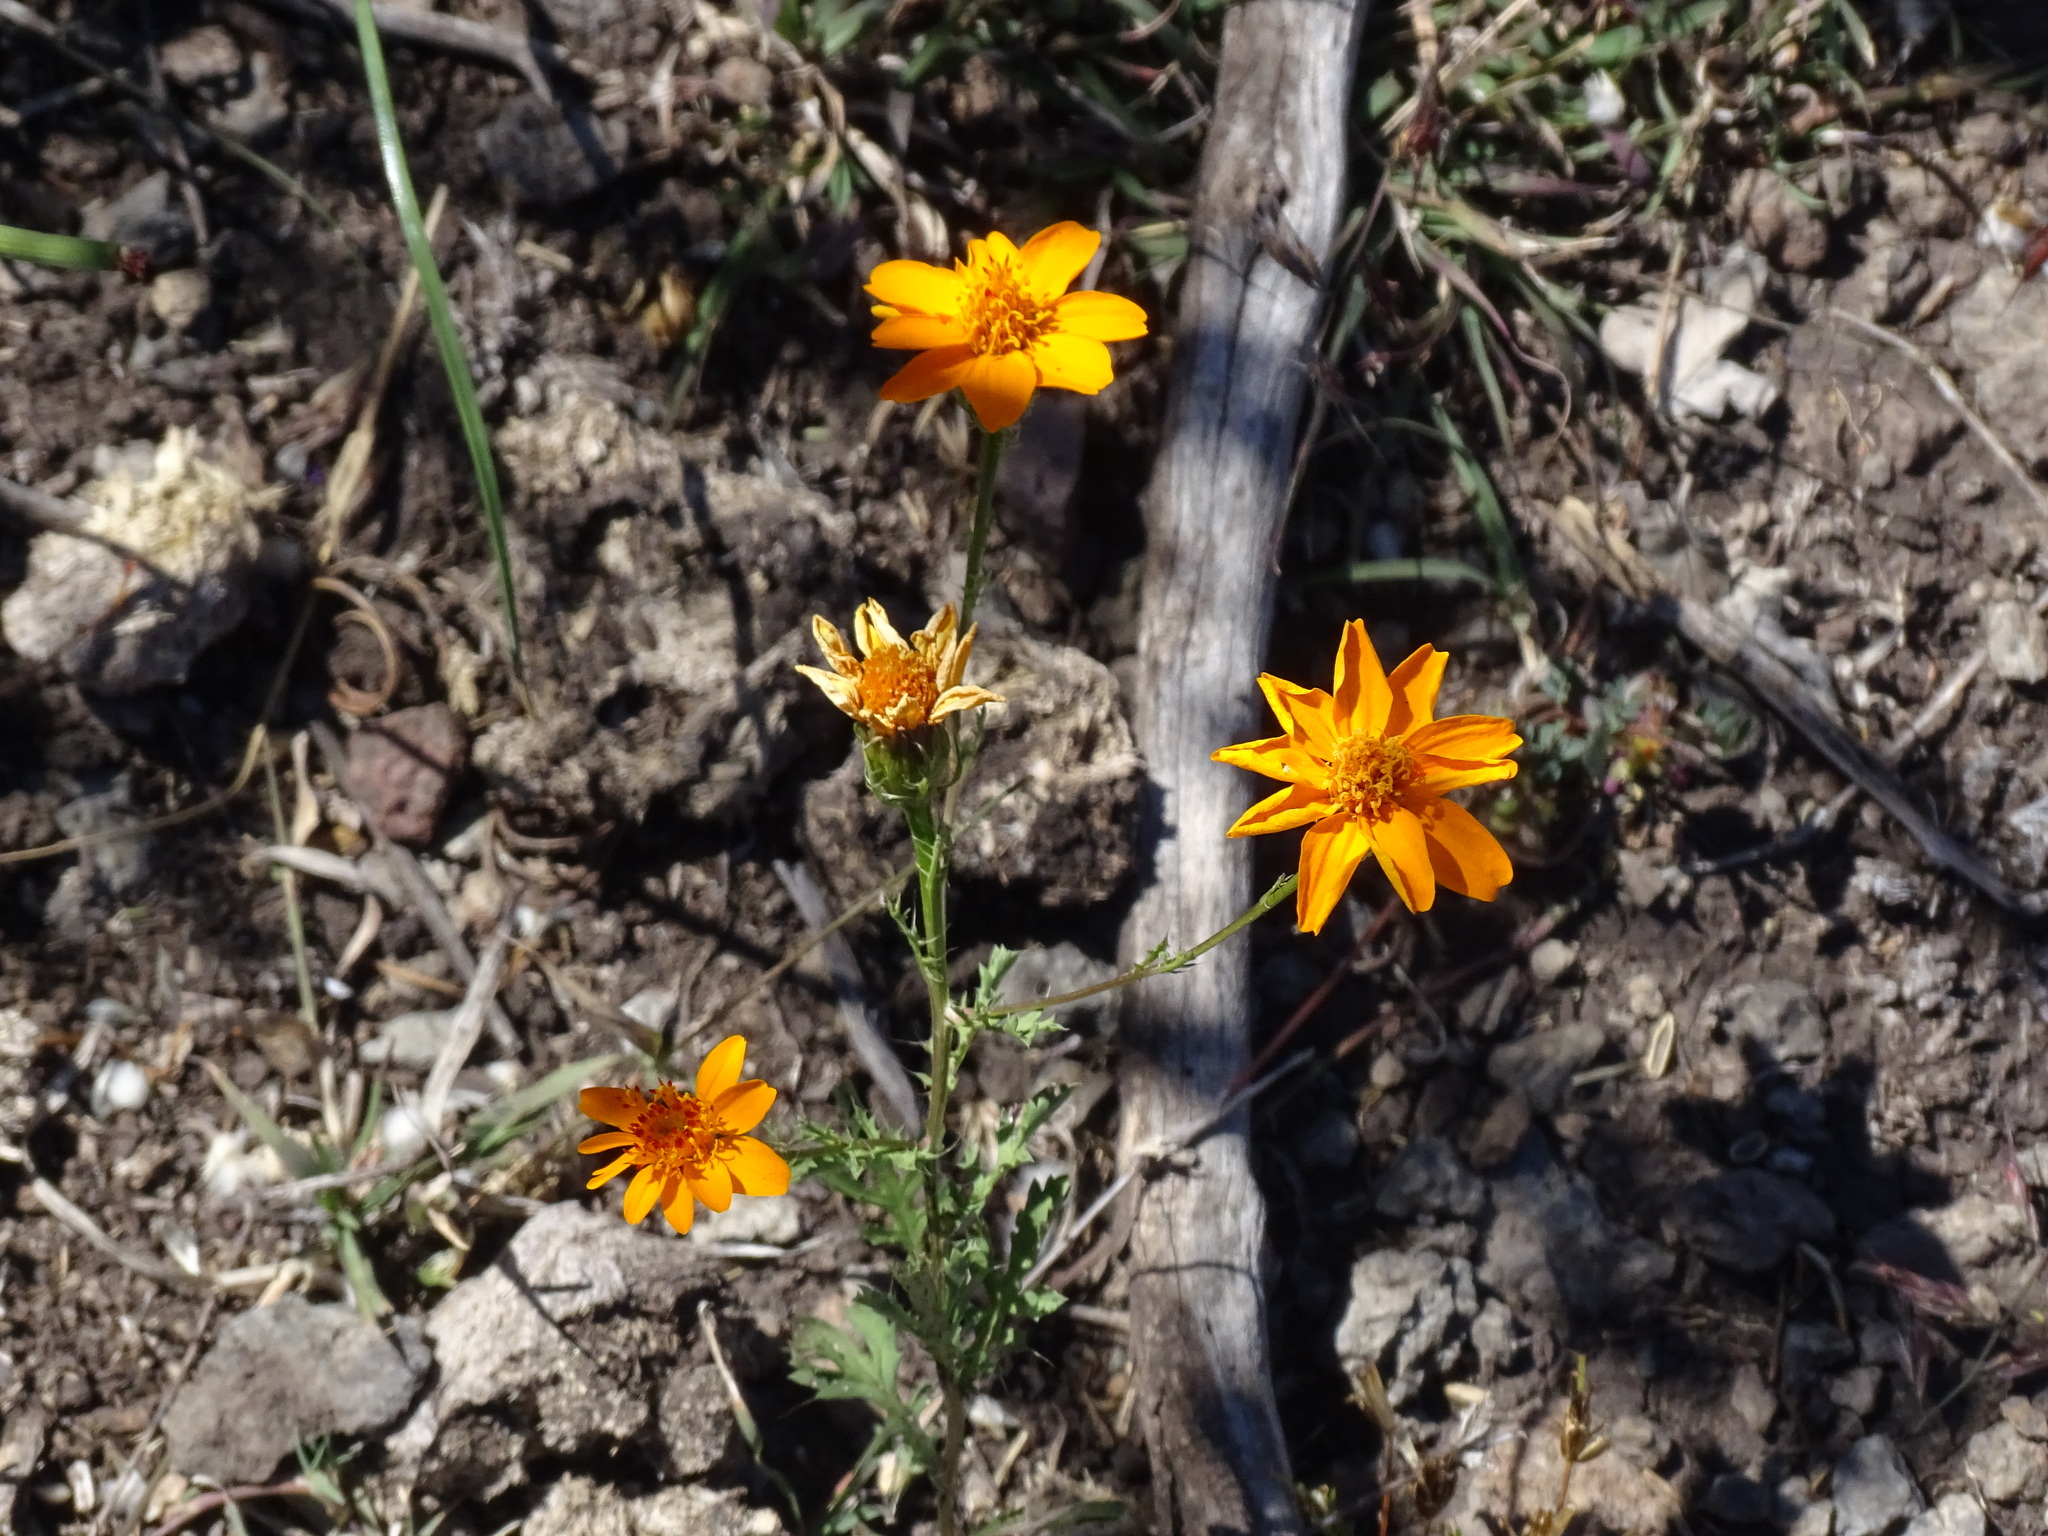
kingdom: Plantae
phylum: Tracheophyta
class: Magnoliopsida
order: Asterales
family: Asteraceae
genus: Adenophyllum
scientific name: Adenophyllum cancellatum
